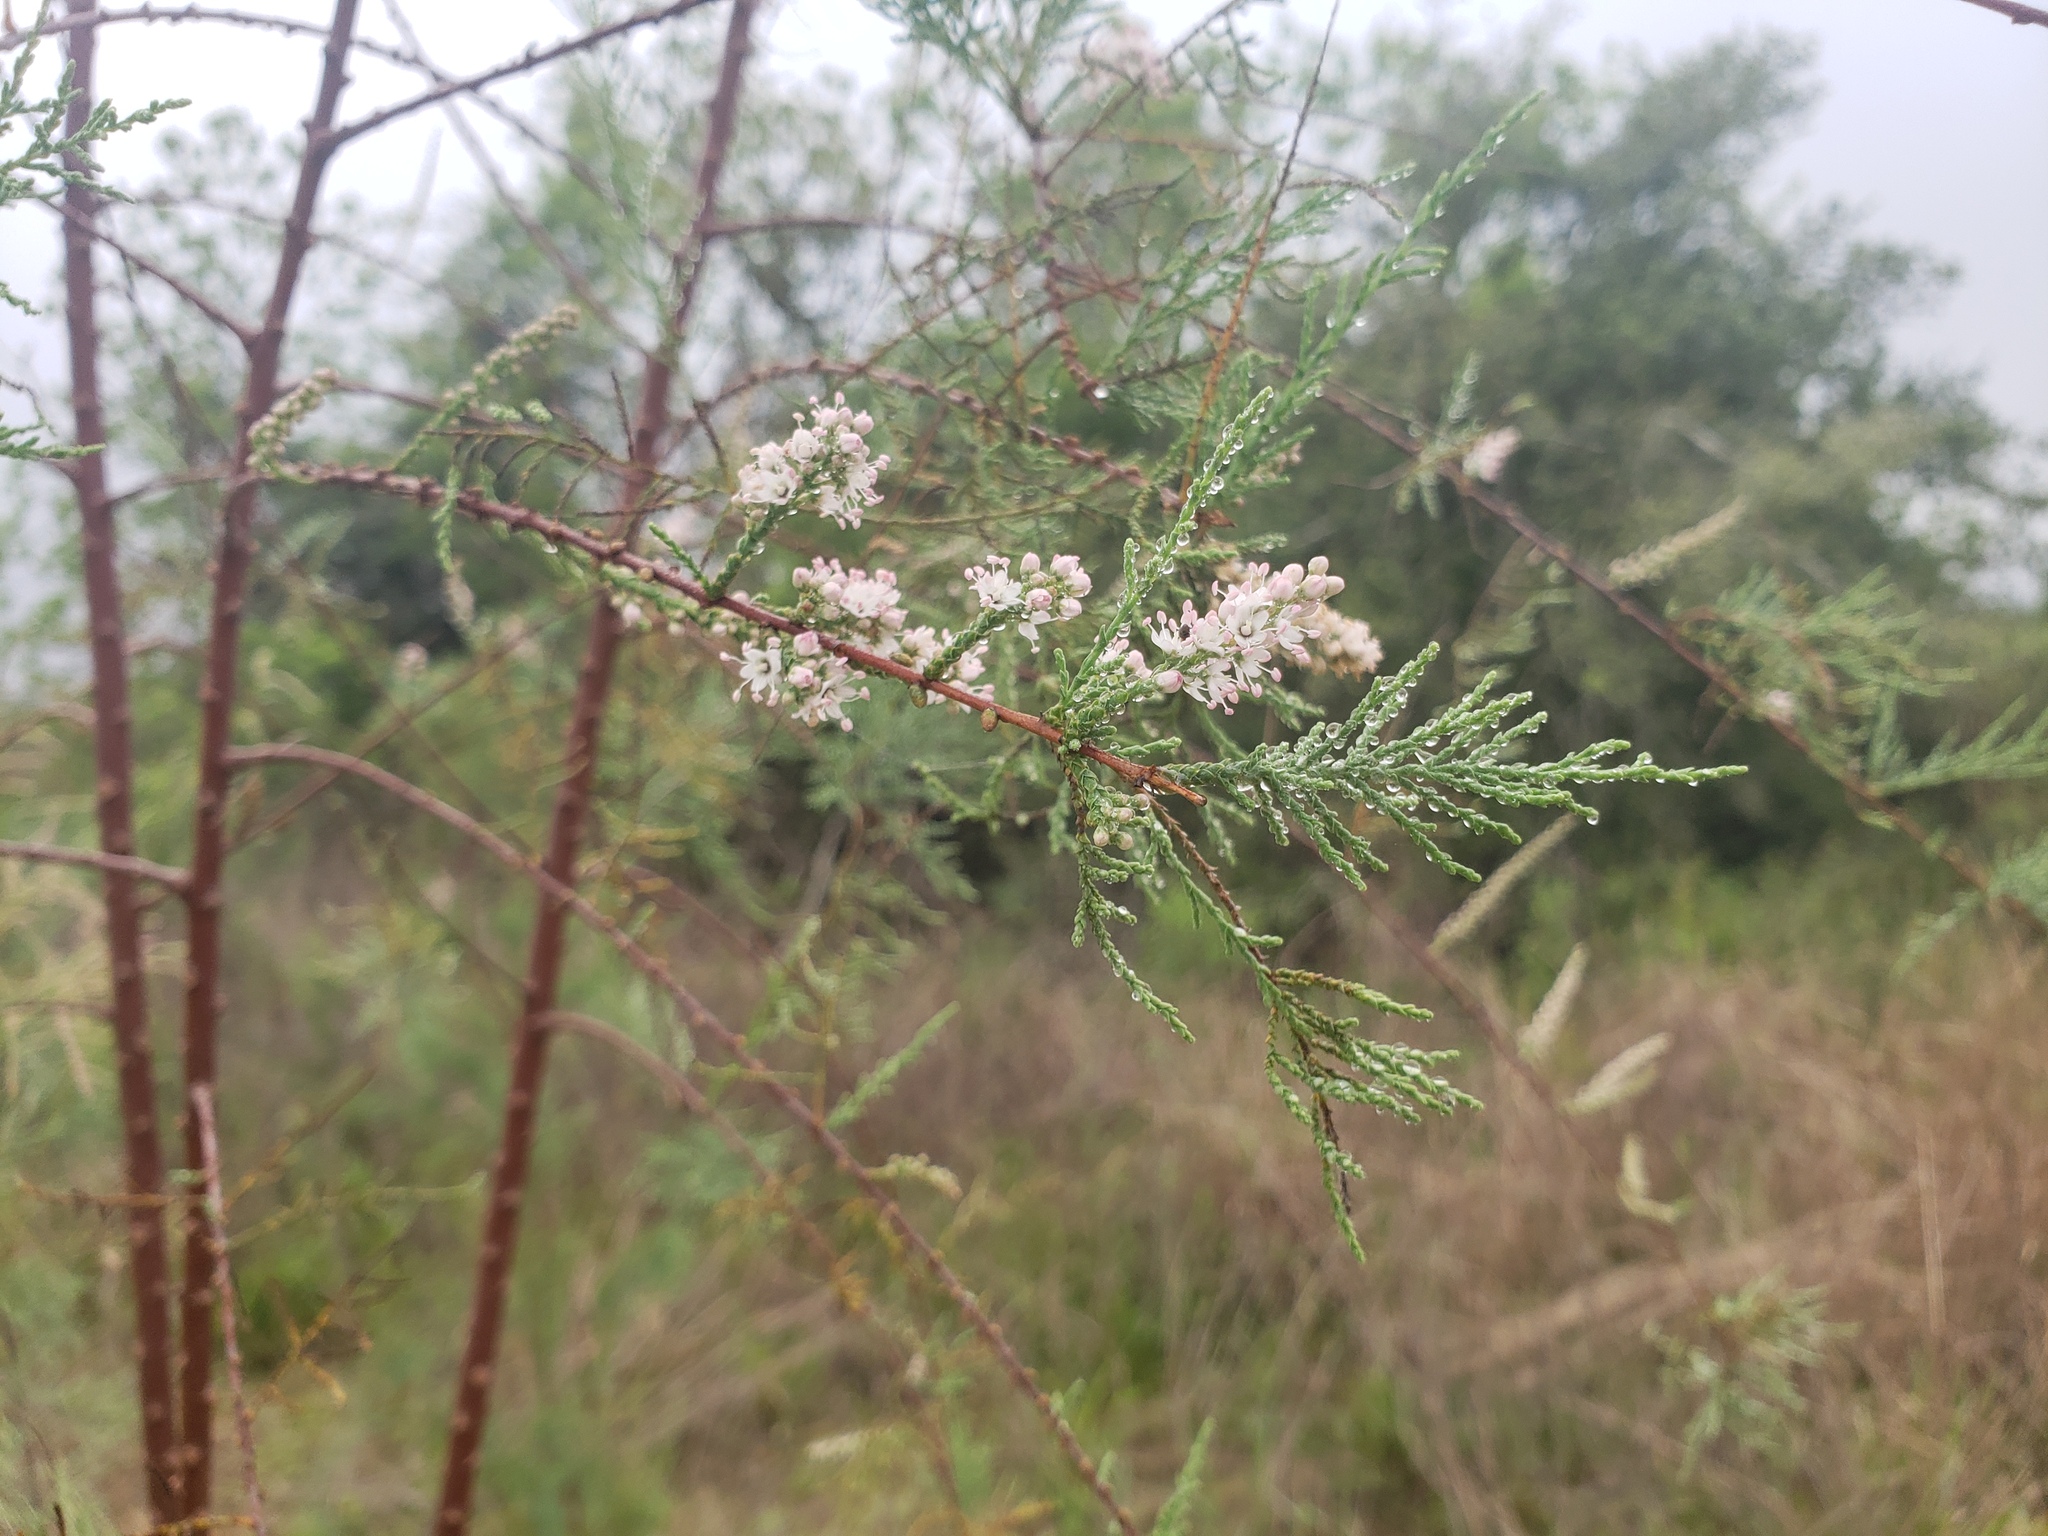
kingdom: Plantae
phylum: Tracheophyta
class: Magnoliopsida
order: Caryophyllales
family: Tamaricaceae
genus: Tamarix
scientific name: Tamarix ramosissima
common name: Pink tamarisk
